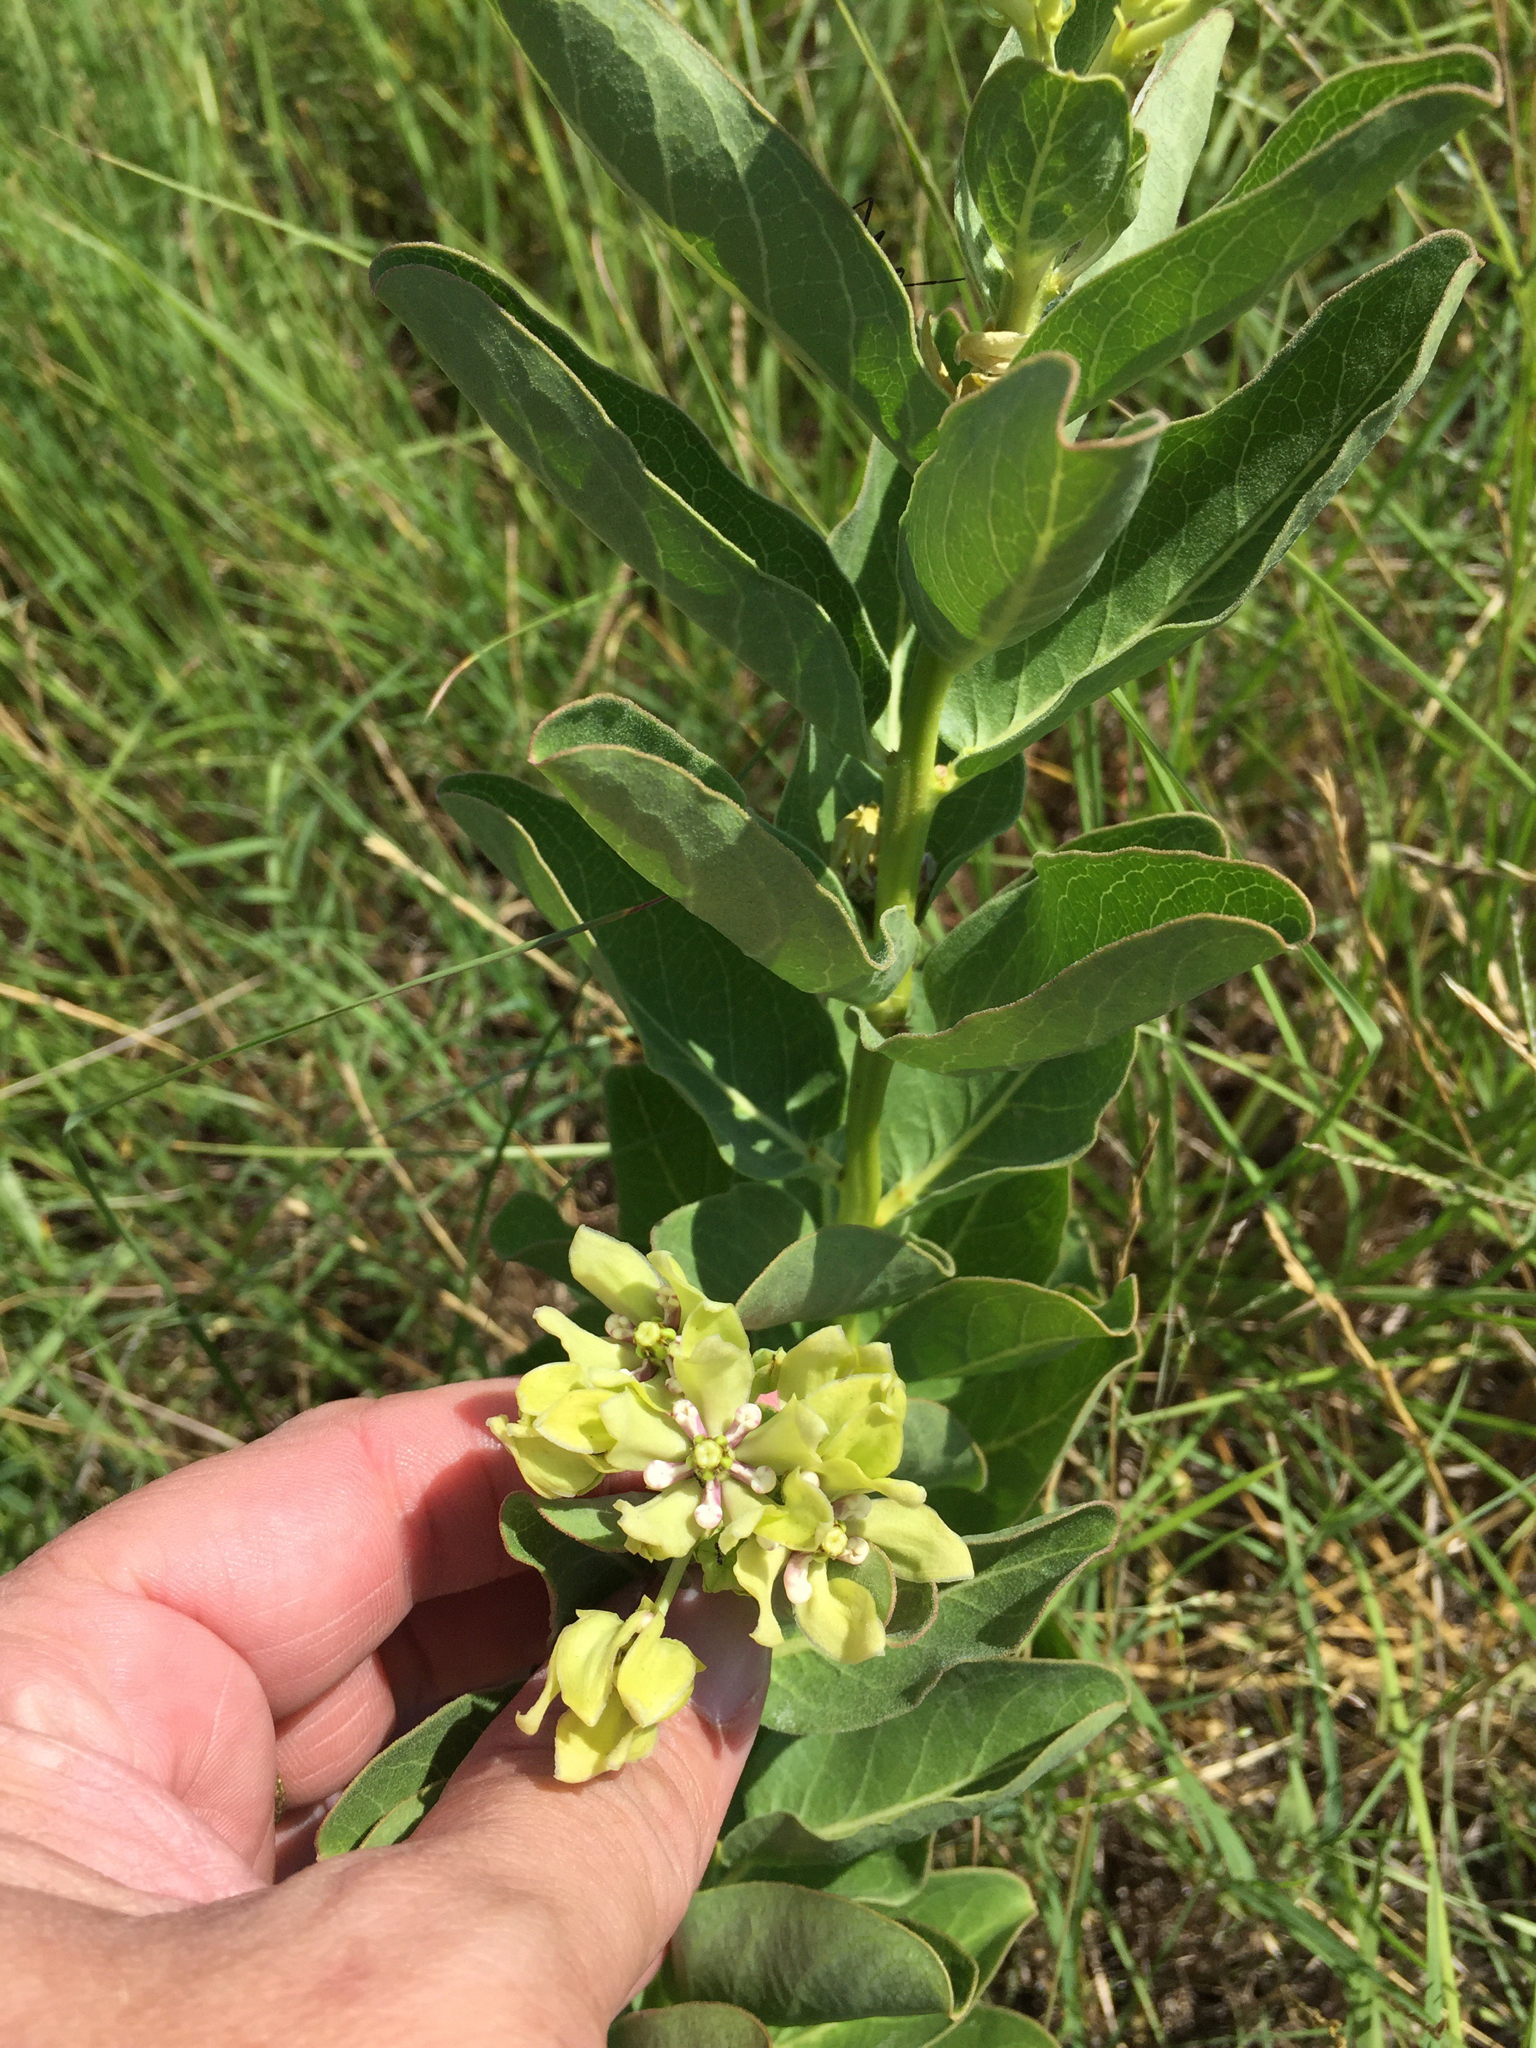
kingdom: Plantae
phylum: Tracheophyta
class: Magnoliopsida
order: Gentianales
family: Apocynaceae
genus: Asclepias
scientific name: Asclepias viridis
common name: Antelope-horns
